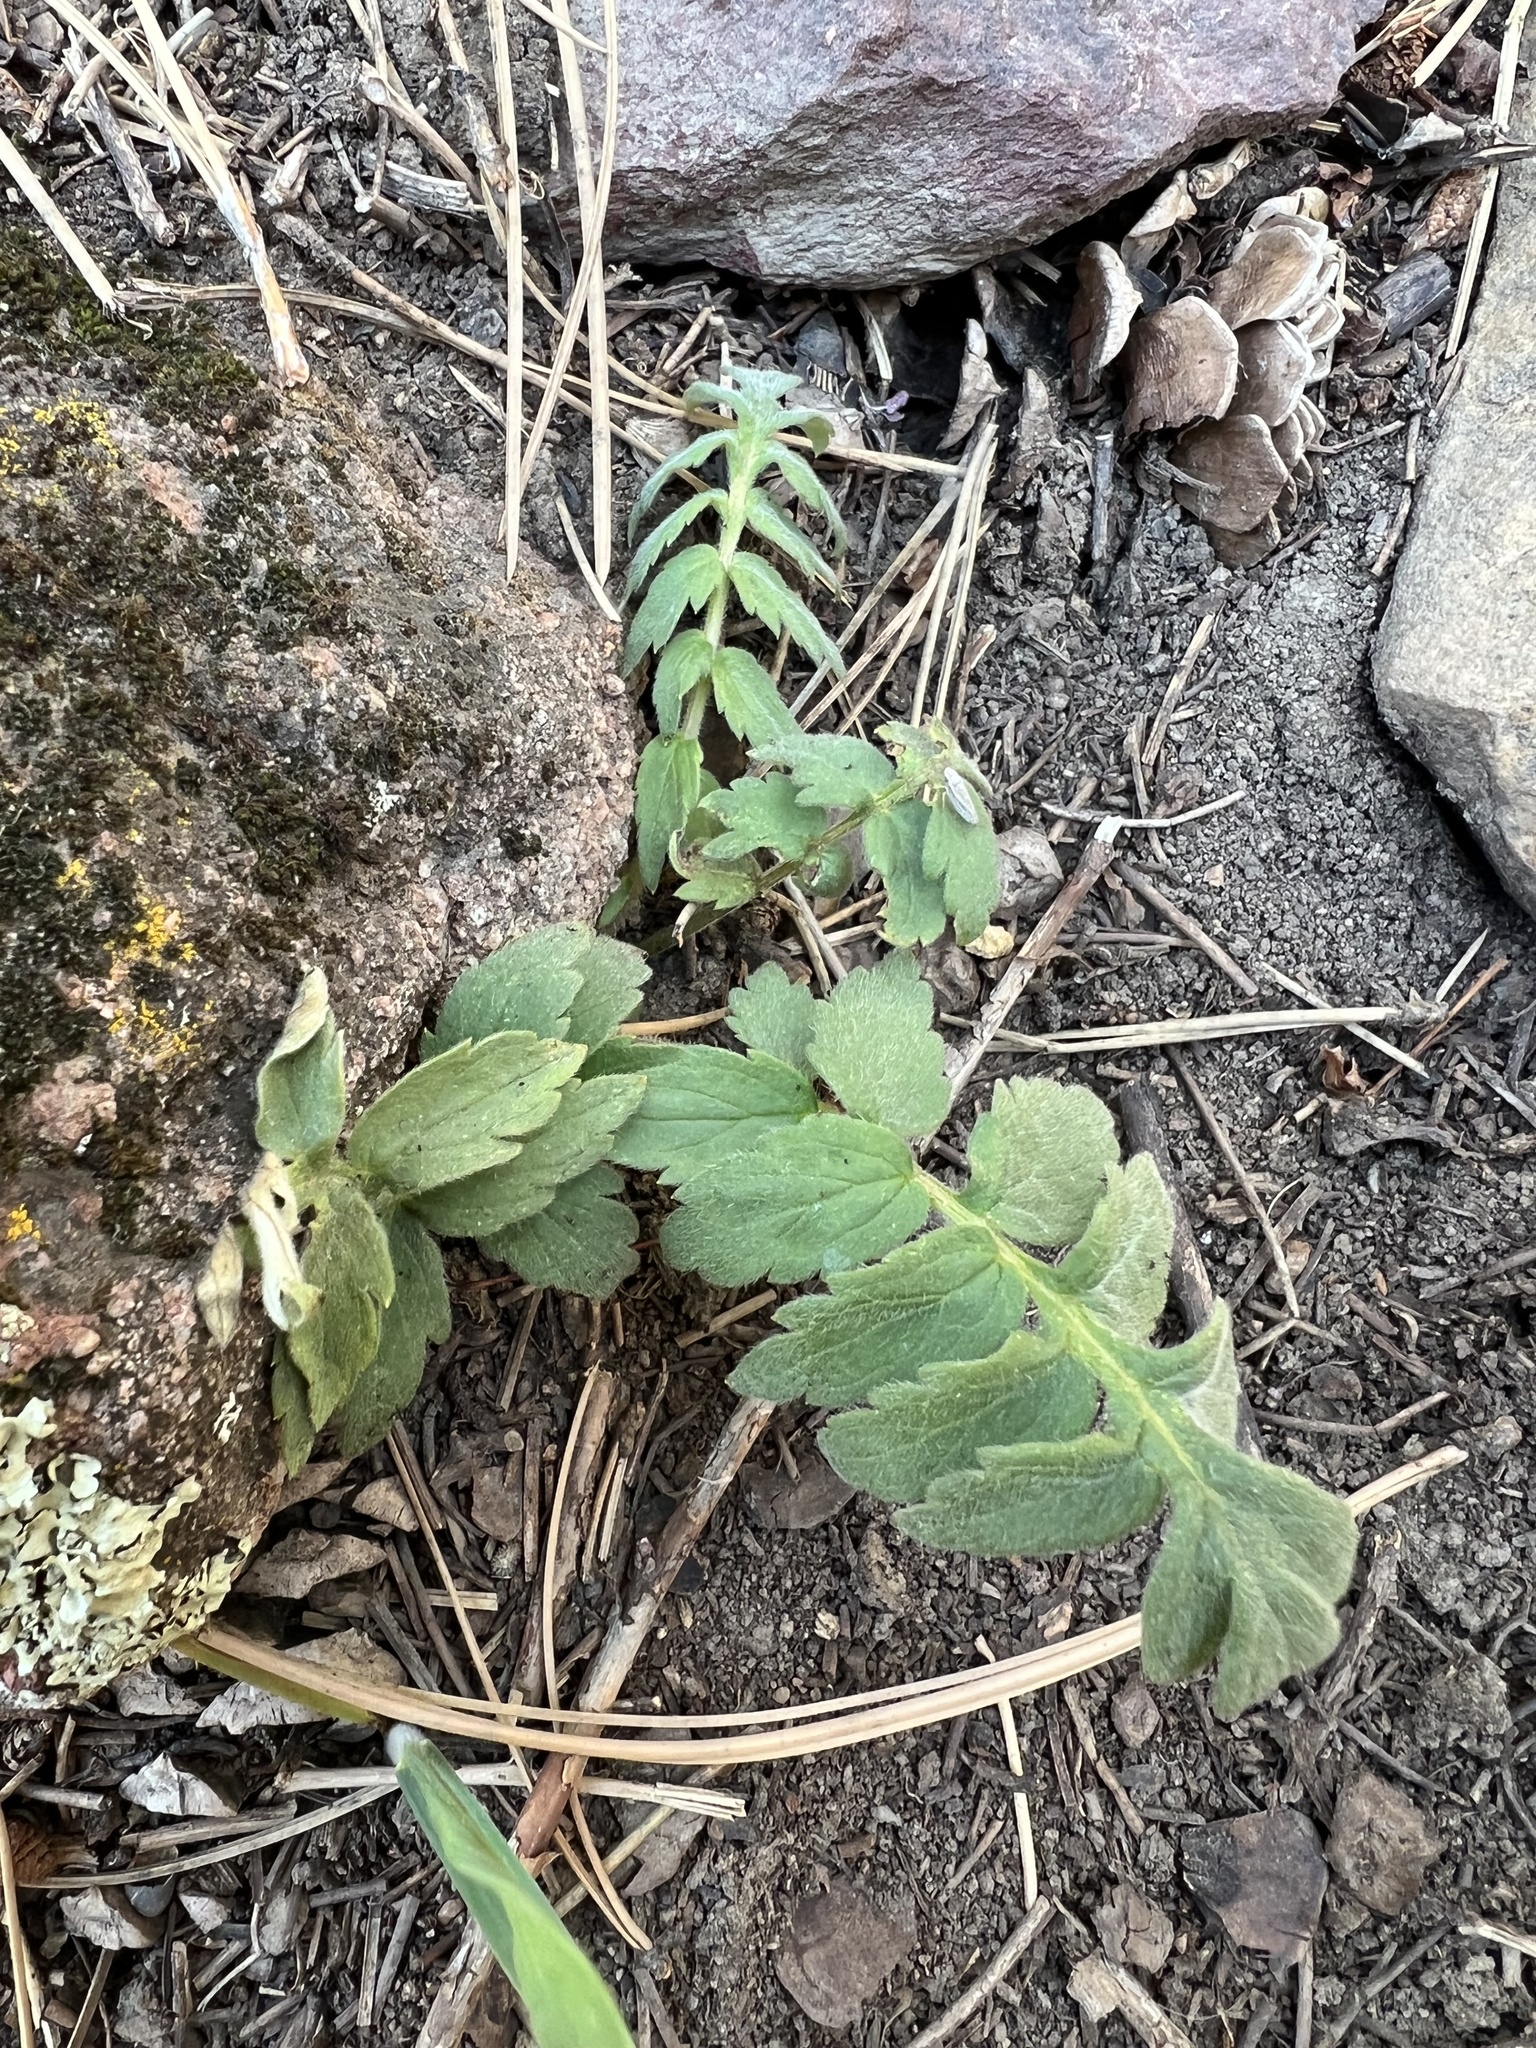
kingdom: Plantae
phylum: Tracheophyta
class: Magnoliopsida
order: Boraginales
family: Hydrophyllaceae
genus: Hydrophyllum
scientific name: Hydrophyllum fendleri
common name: Fendler's waterleaf
